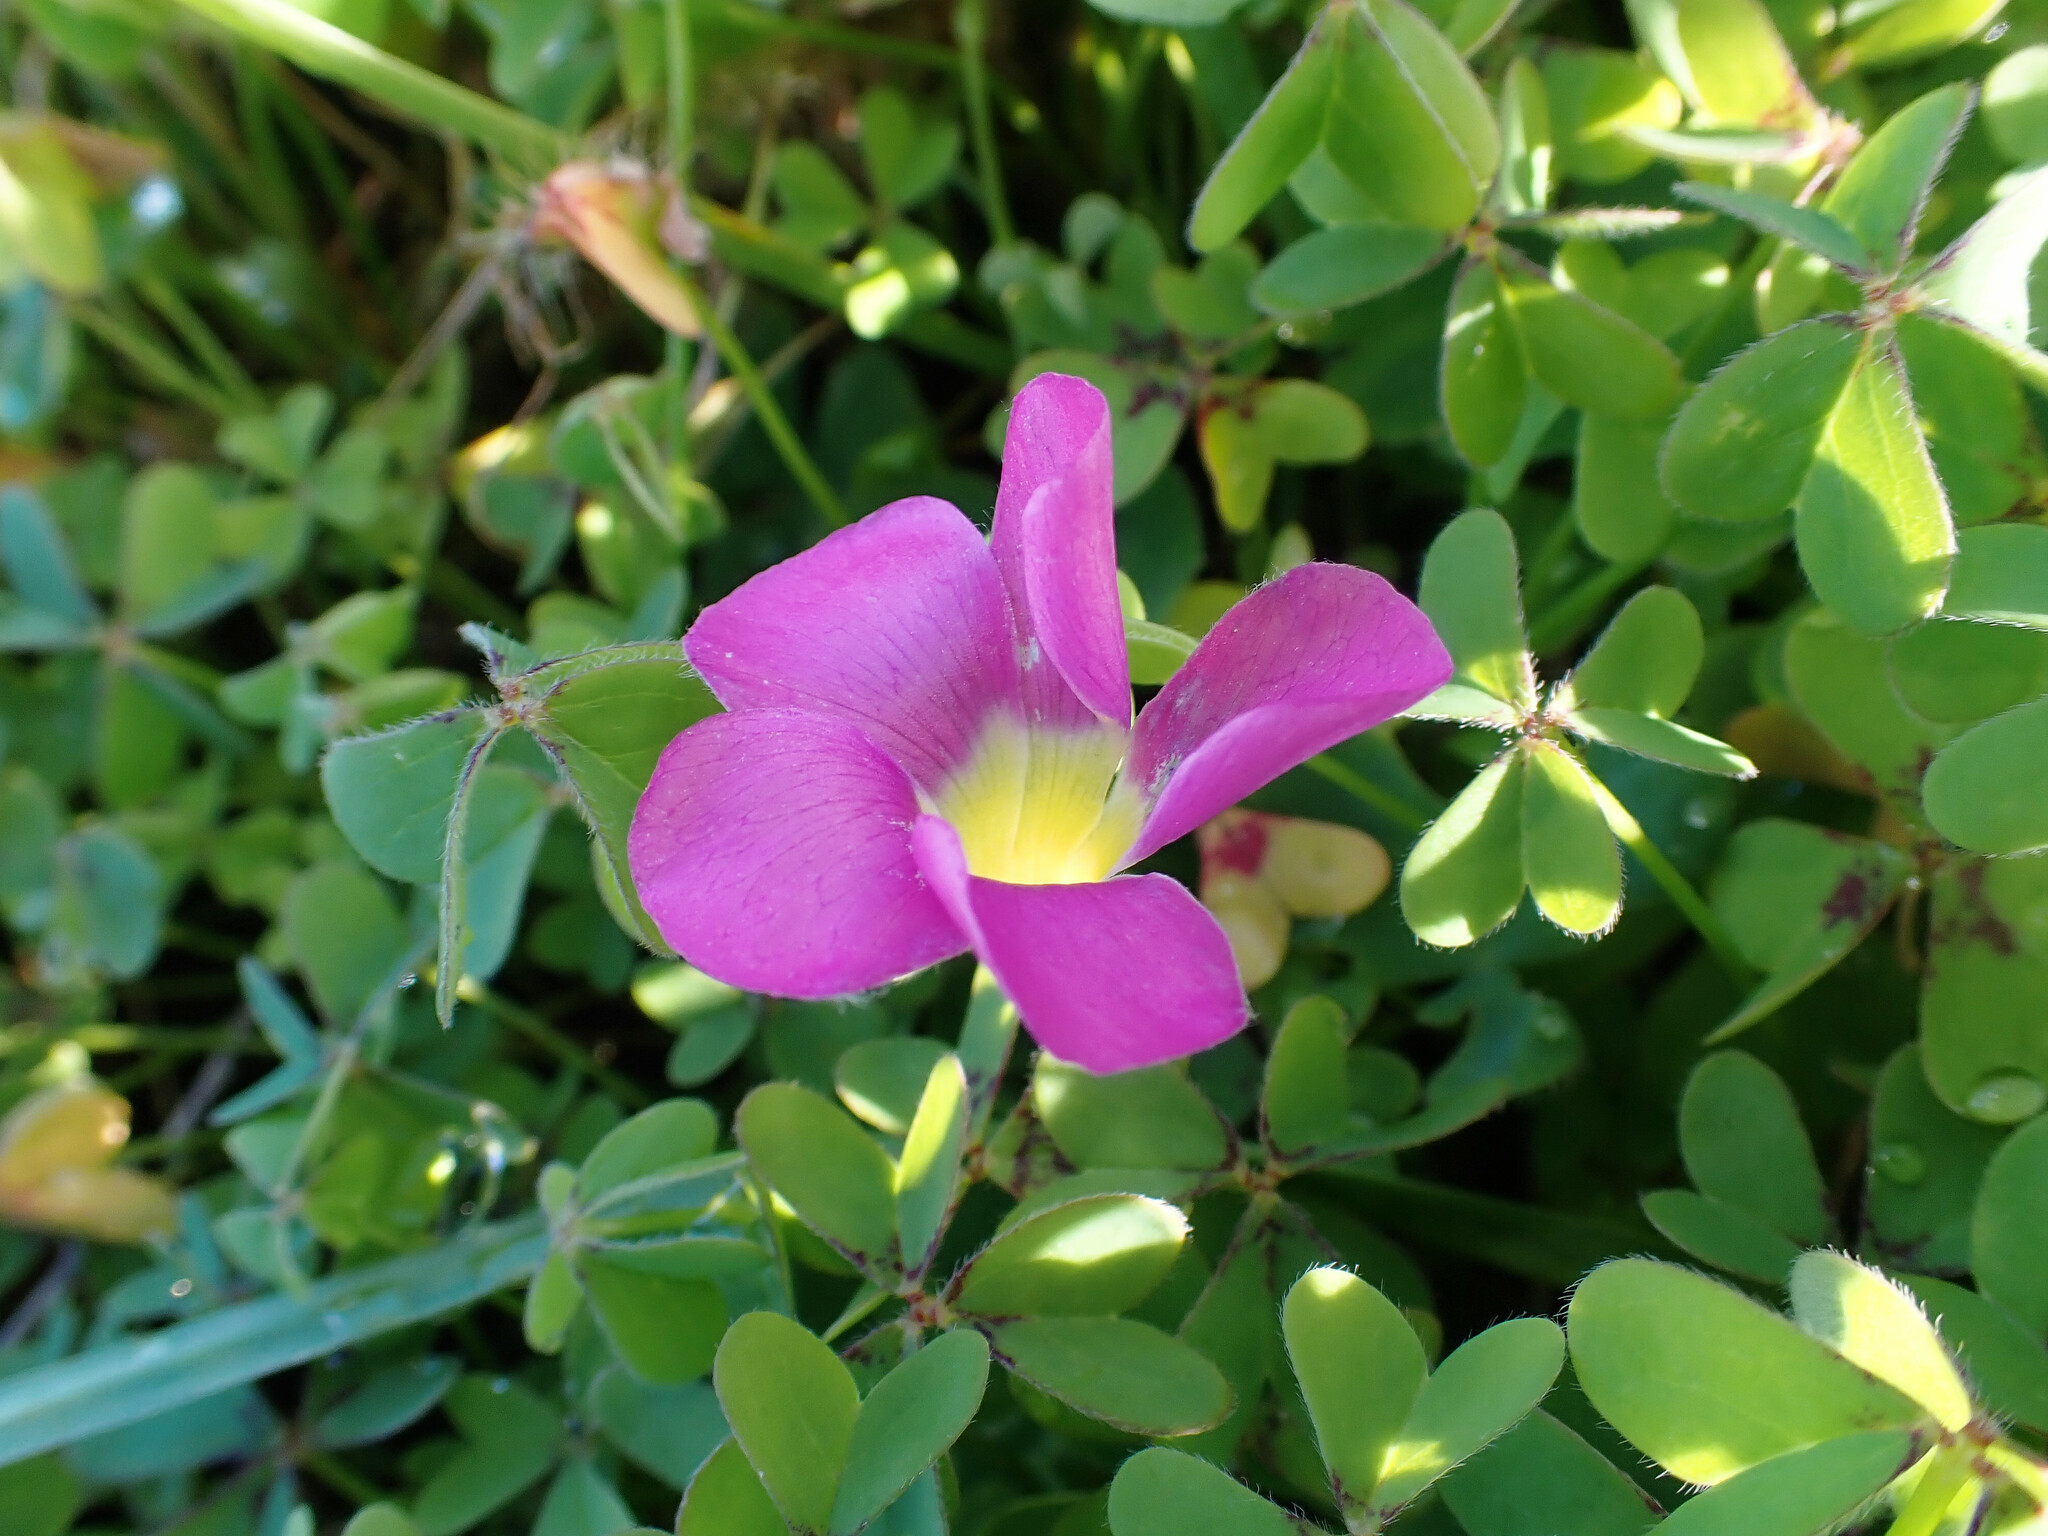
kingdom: Plantae
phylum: Tracheophyta
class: Magnoliopsida
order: Oxalidales
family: Oxalidaceae
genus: Oxalis
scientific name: Oxalis purpurea
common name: Purple woodsorrel
